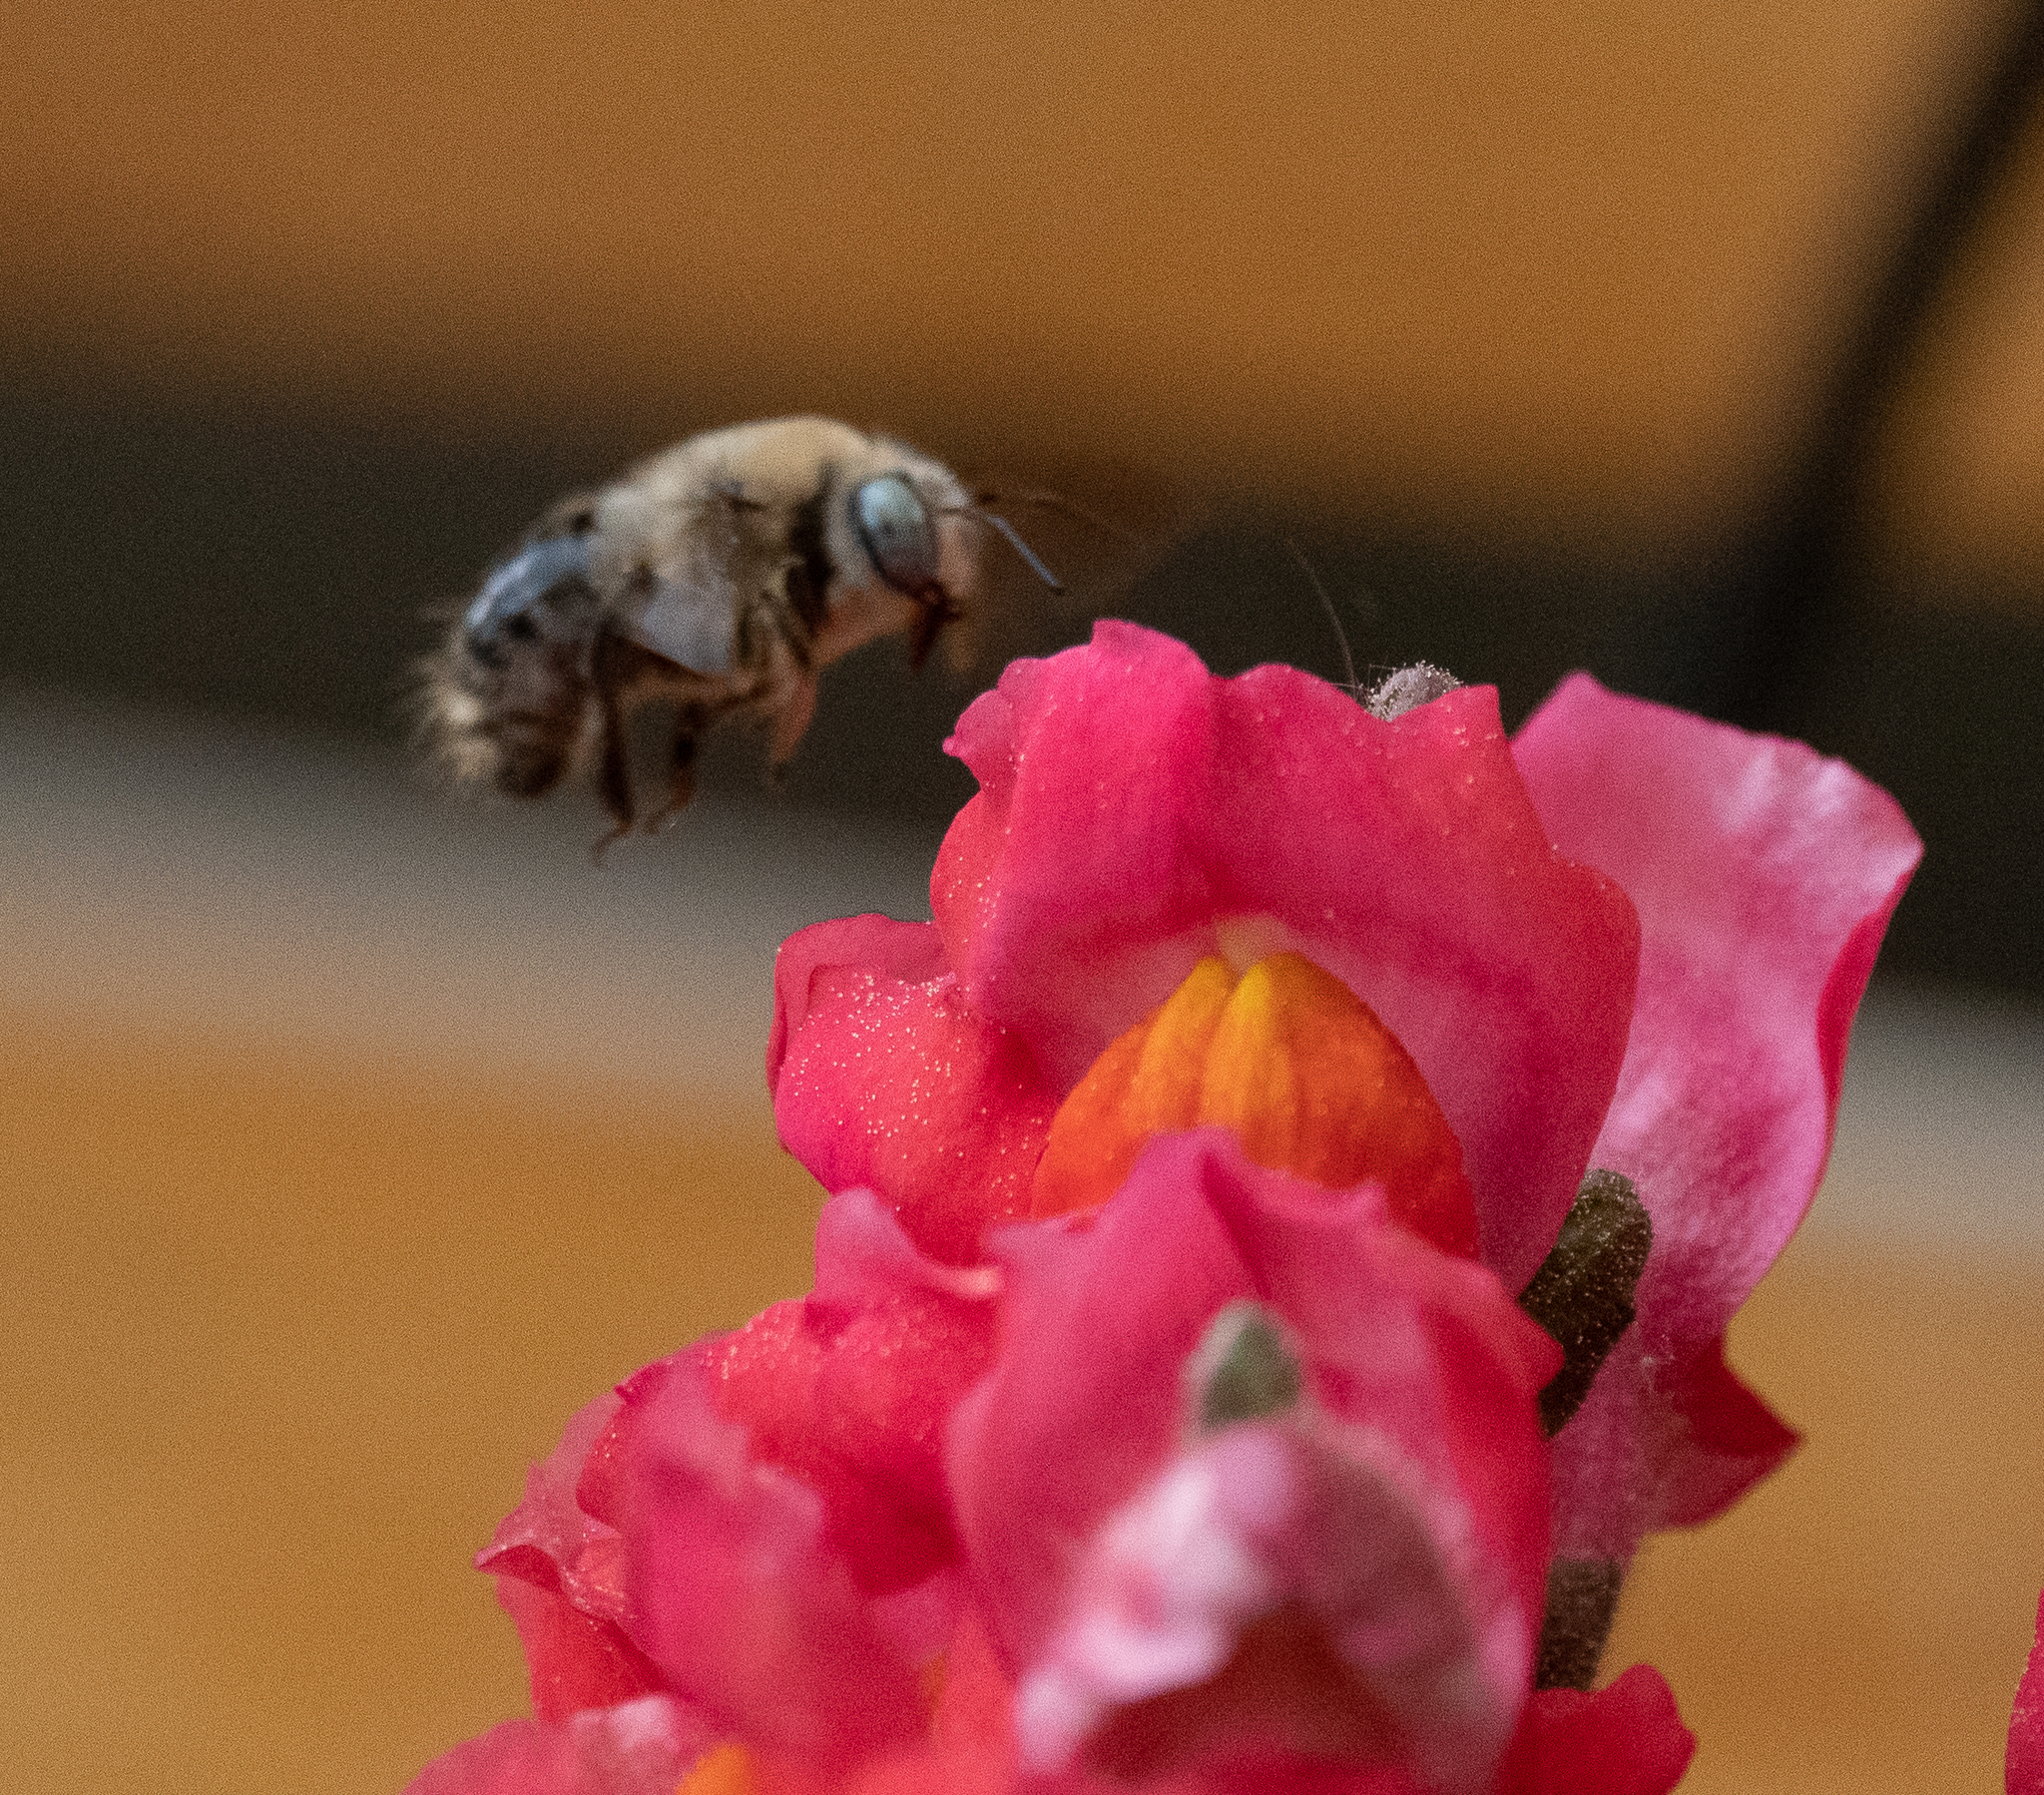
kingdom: Animalia
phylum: Arthropoda
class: Insecta
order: Hymenoptera
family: Apidae
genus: Xylocopa
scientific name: Xylocopa tabaniformis
